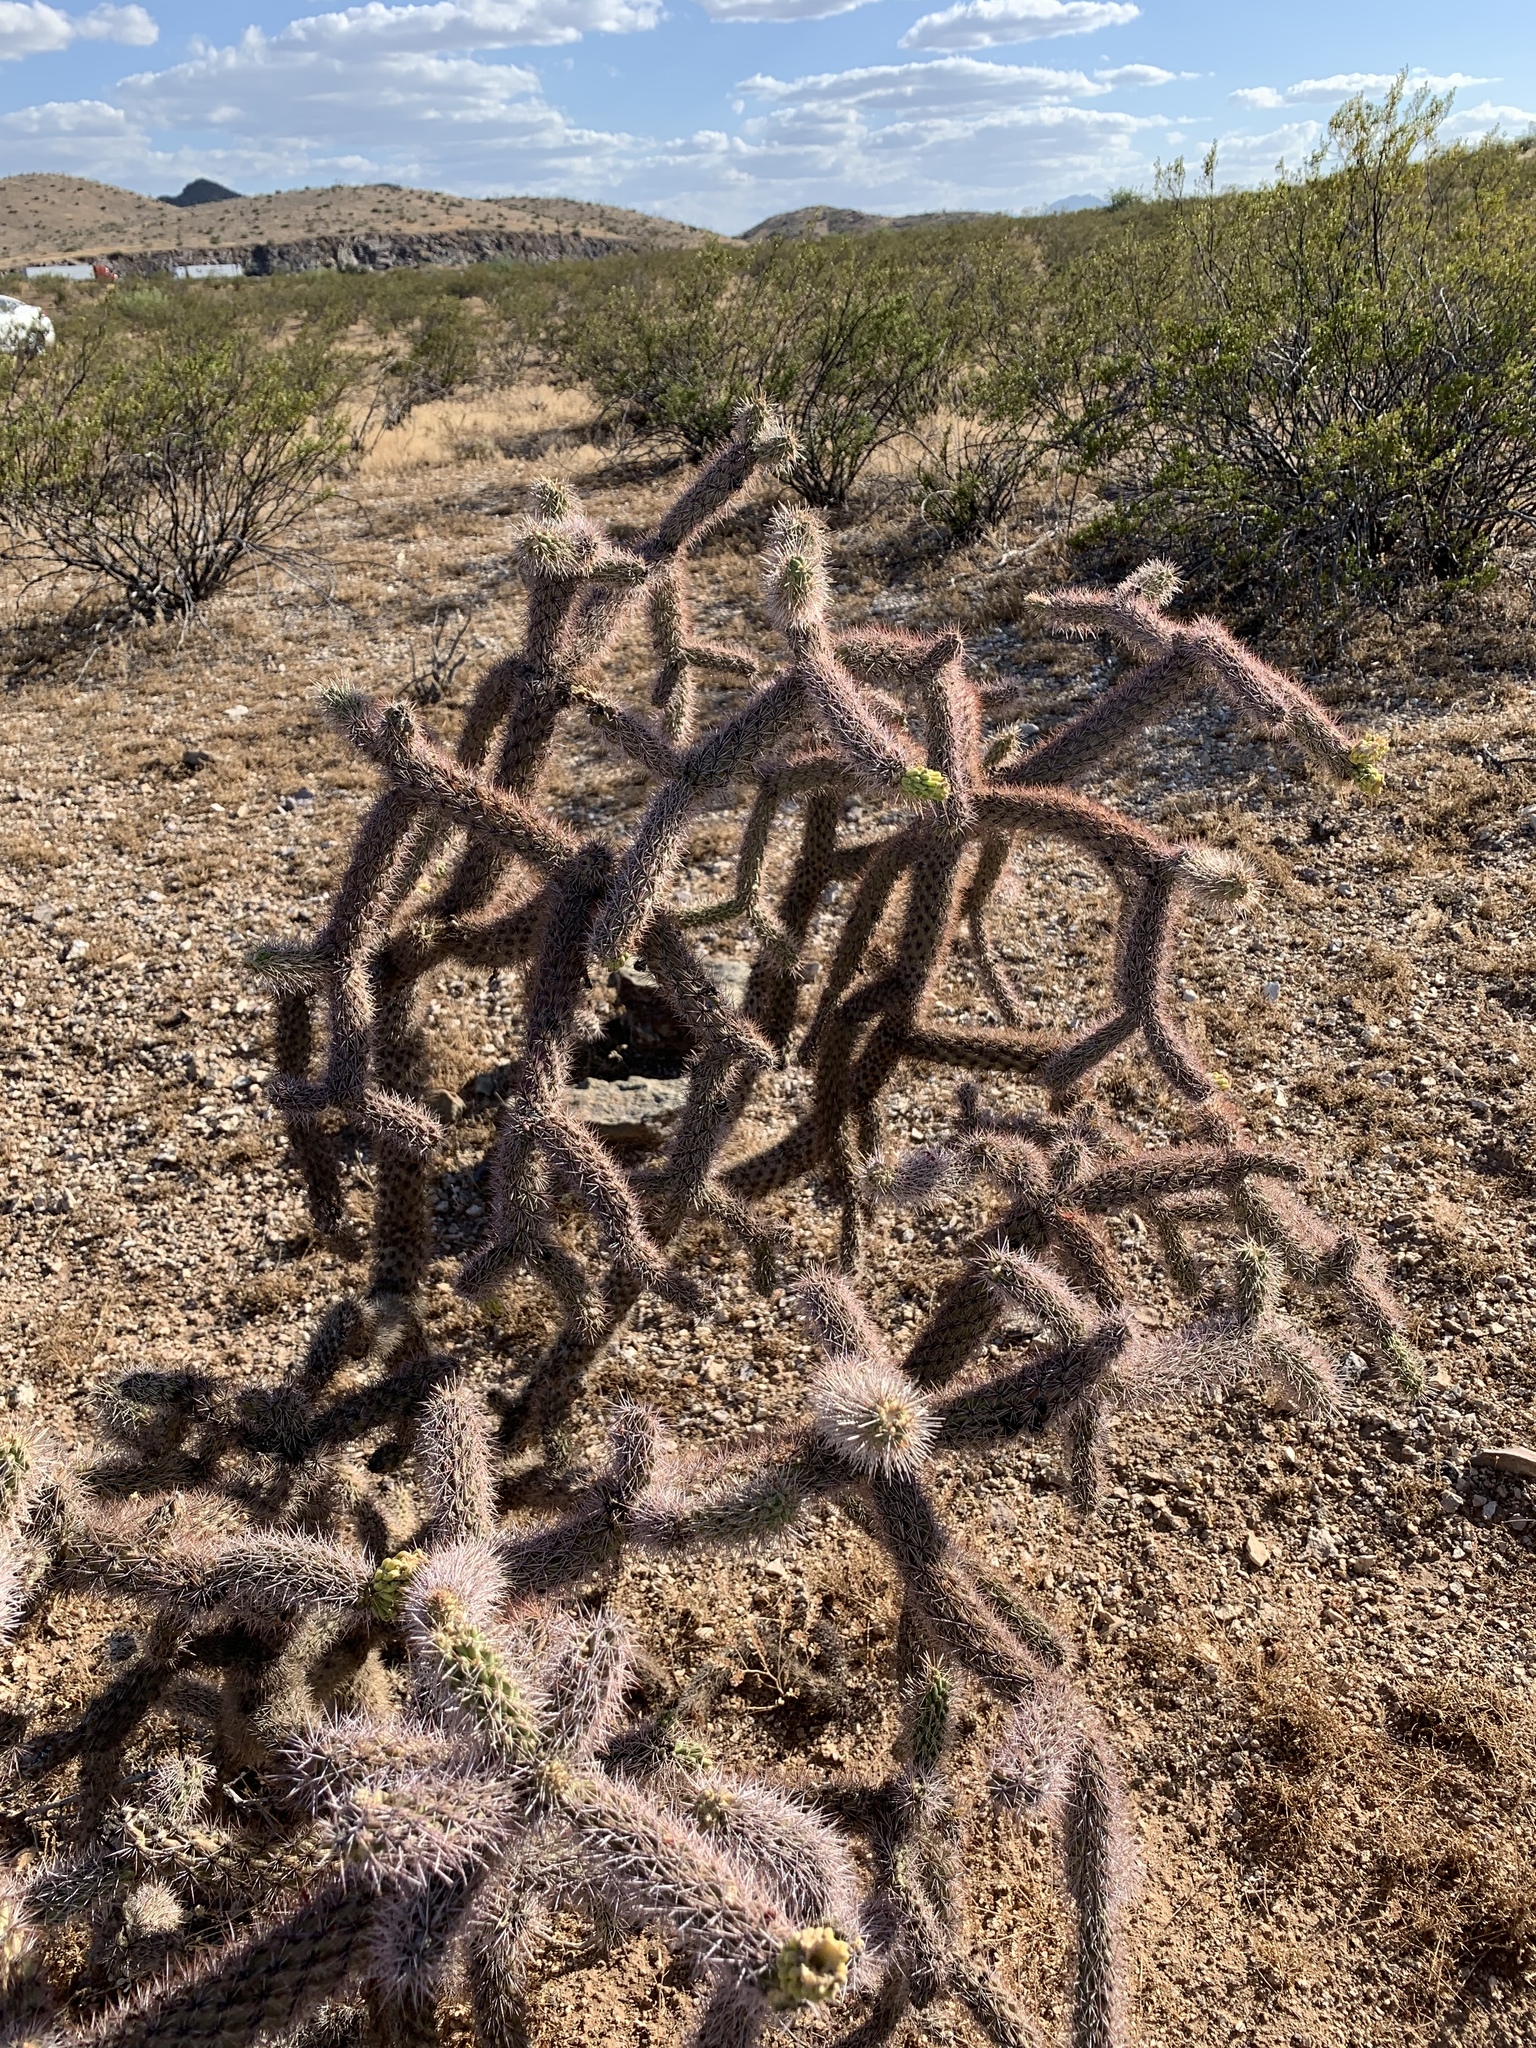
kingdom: Plantae
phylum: Tracheophyta
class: Magnoliopsida
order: Caryophyllales
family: Cactaceae
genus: Cylindropuntia
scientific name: Cylindropuntia imbricata
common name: Candelabrum cactus
